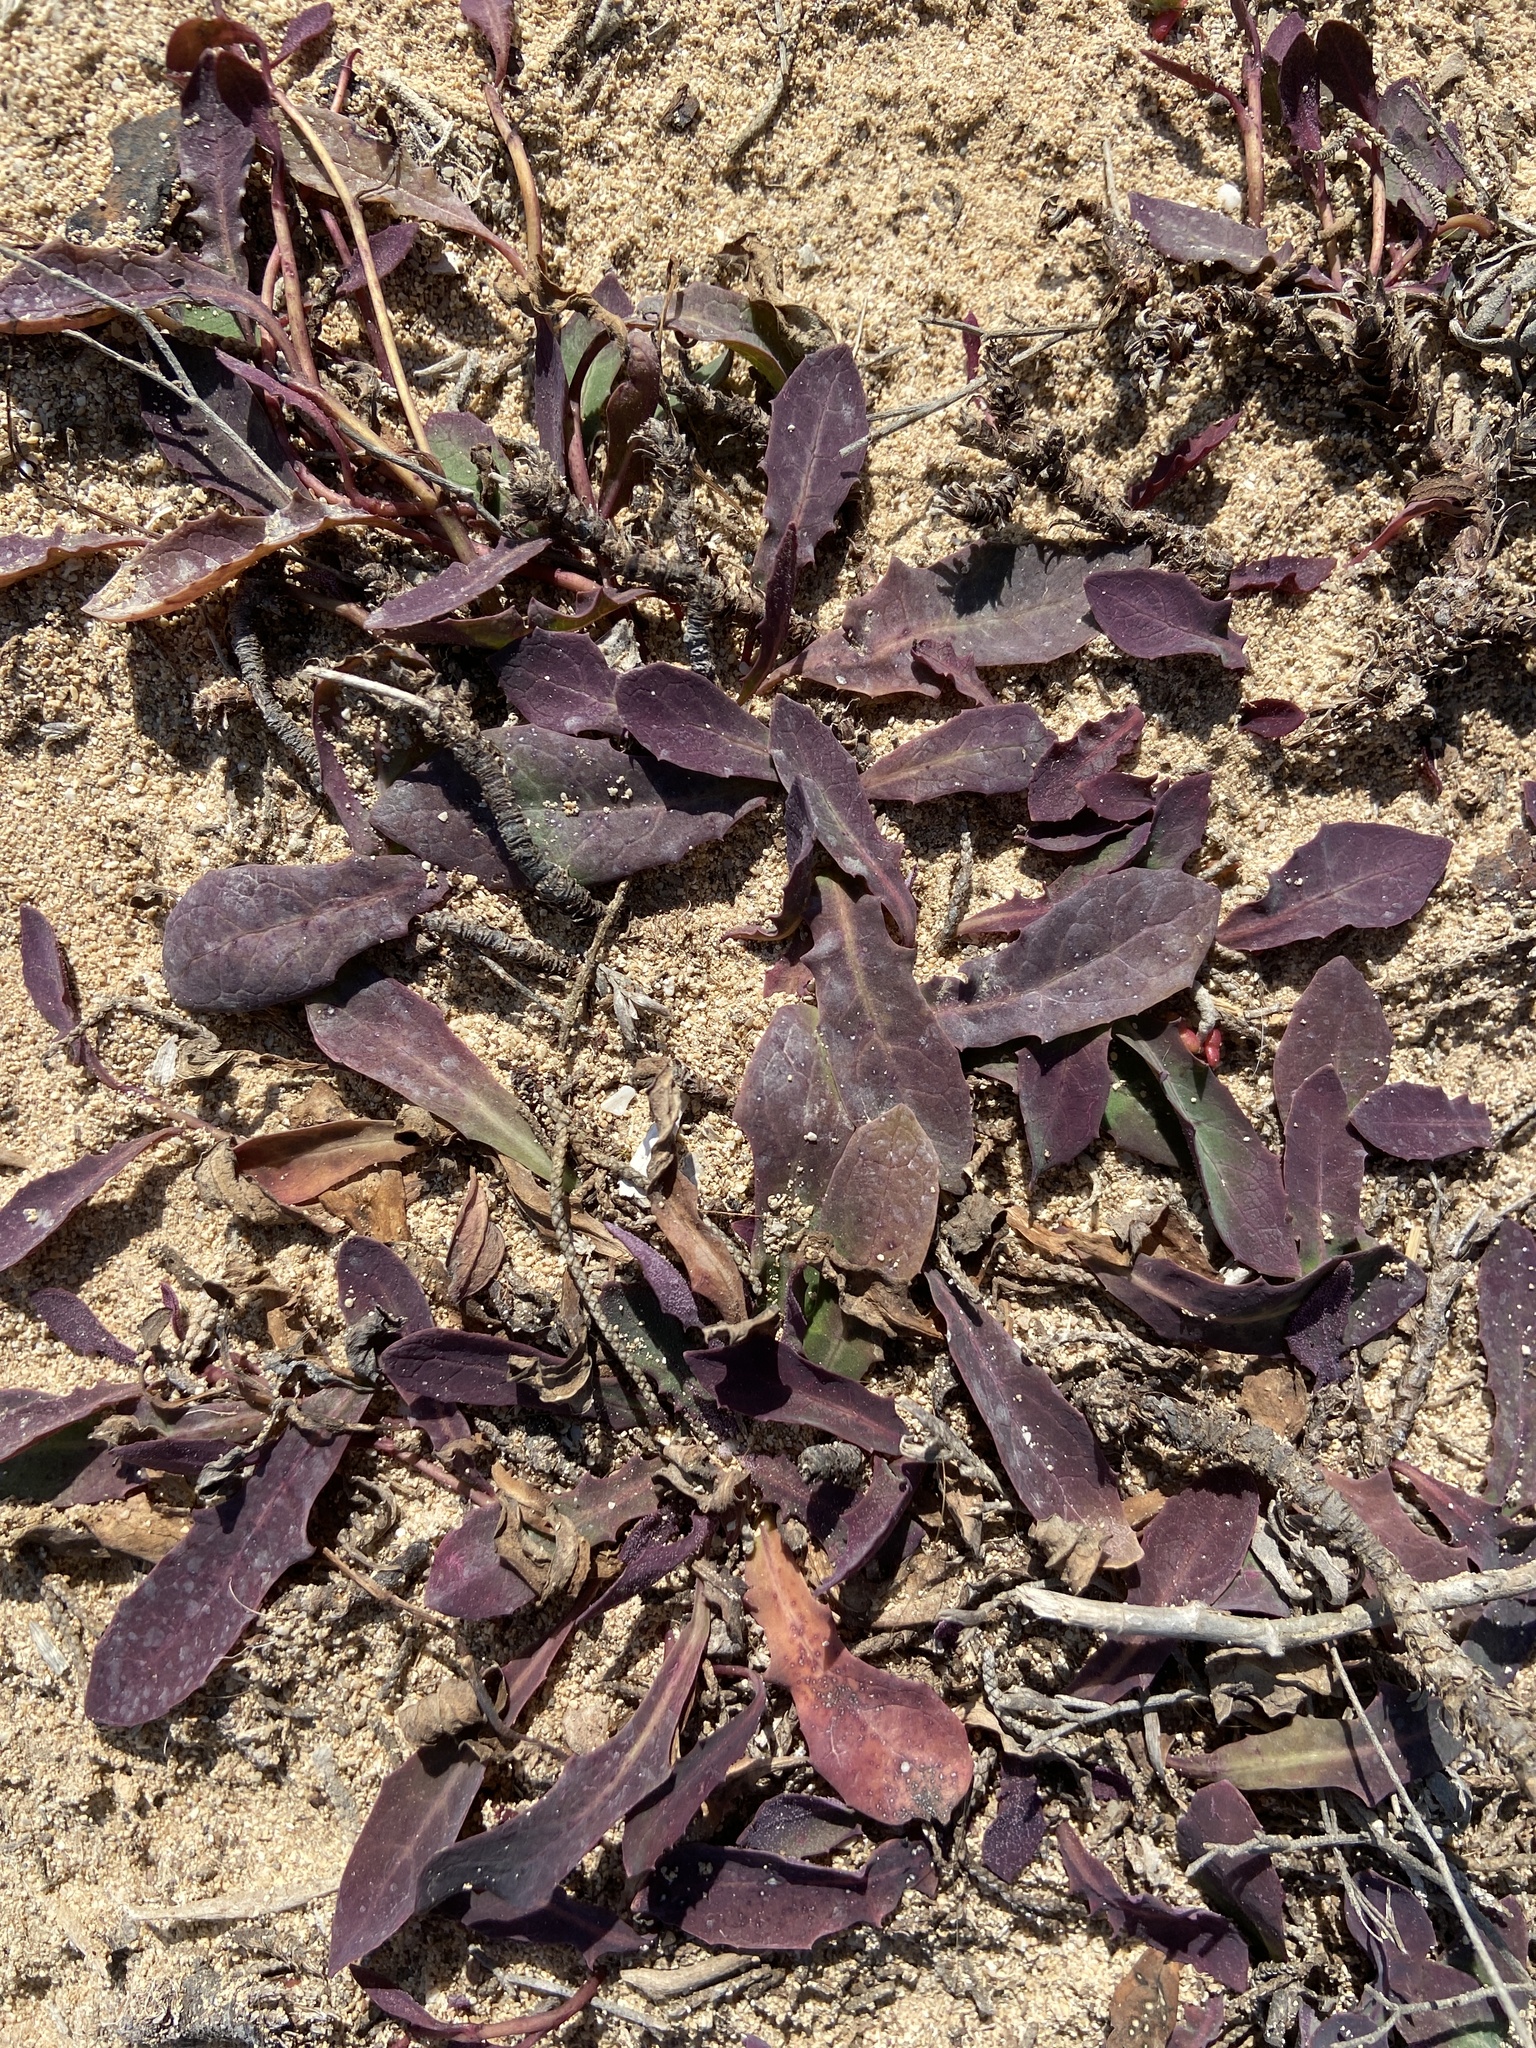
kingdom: Plantae
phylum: Tracheophyta
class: Magnoliopsida
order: Asterales
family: Asteraceae
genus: Aetheorhiza
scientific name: Aetheorhiza bulbosa
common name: Tuberous hawk's-beard
